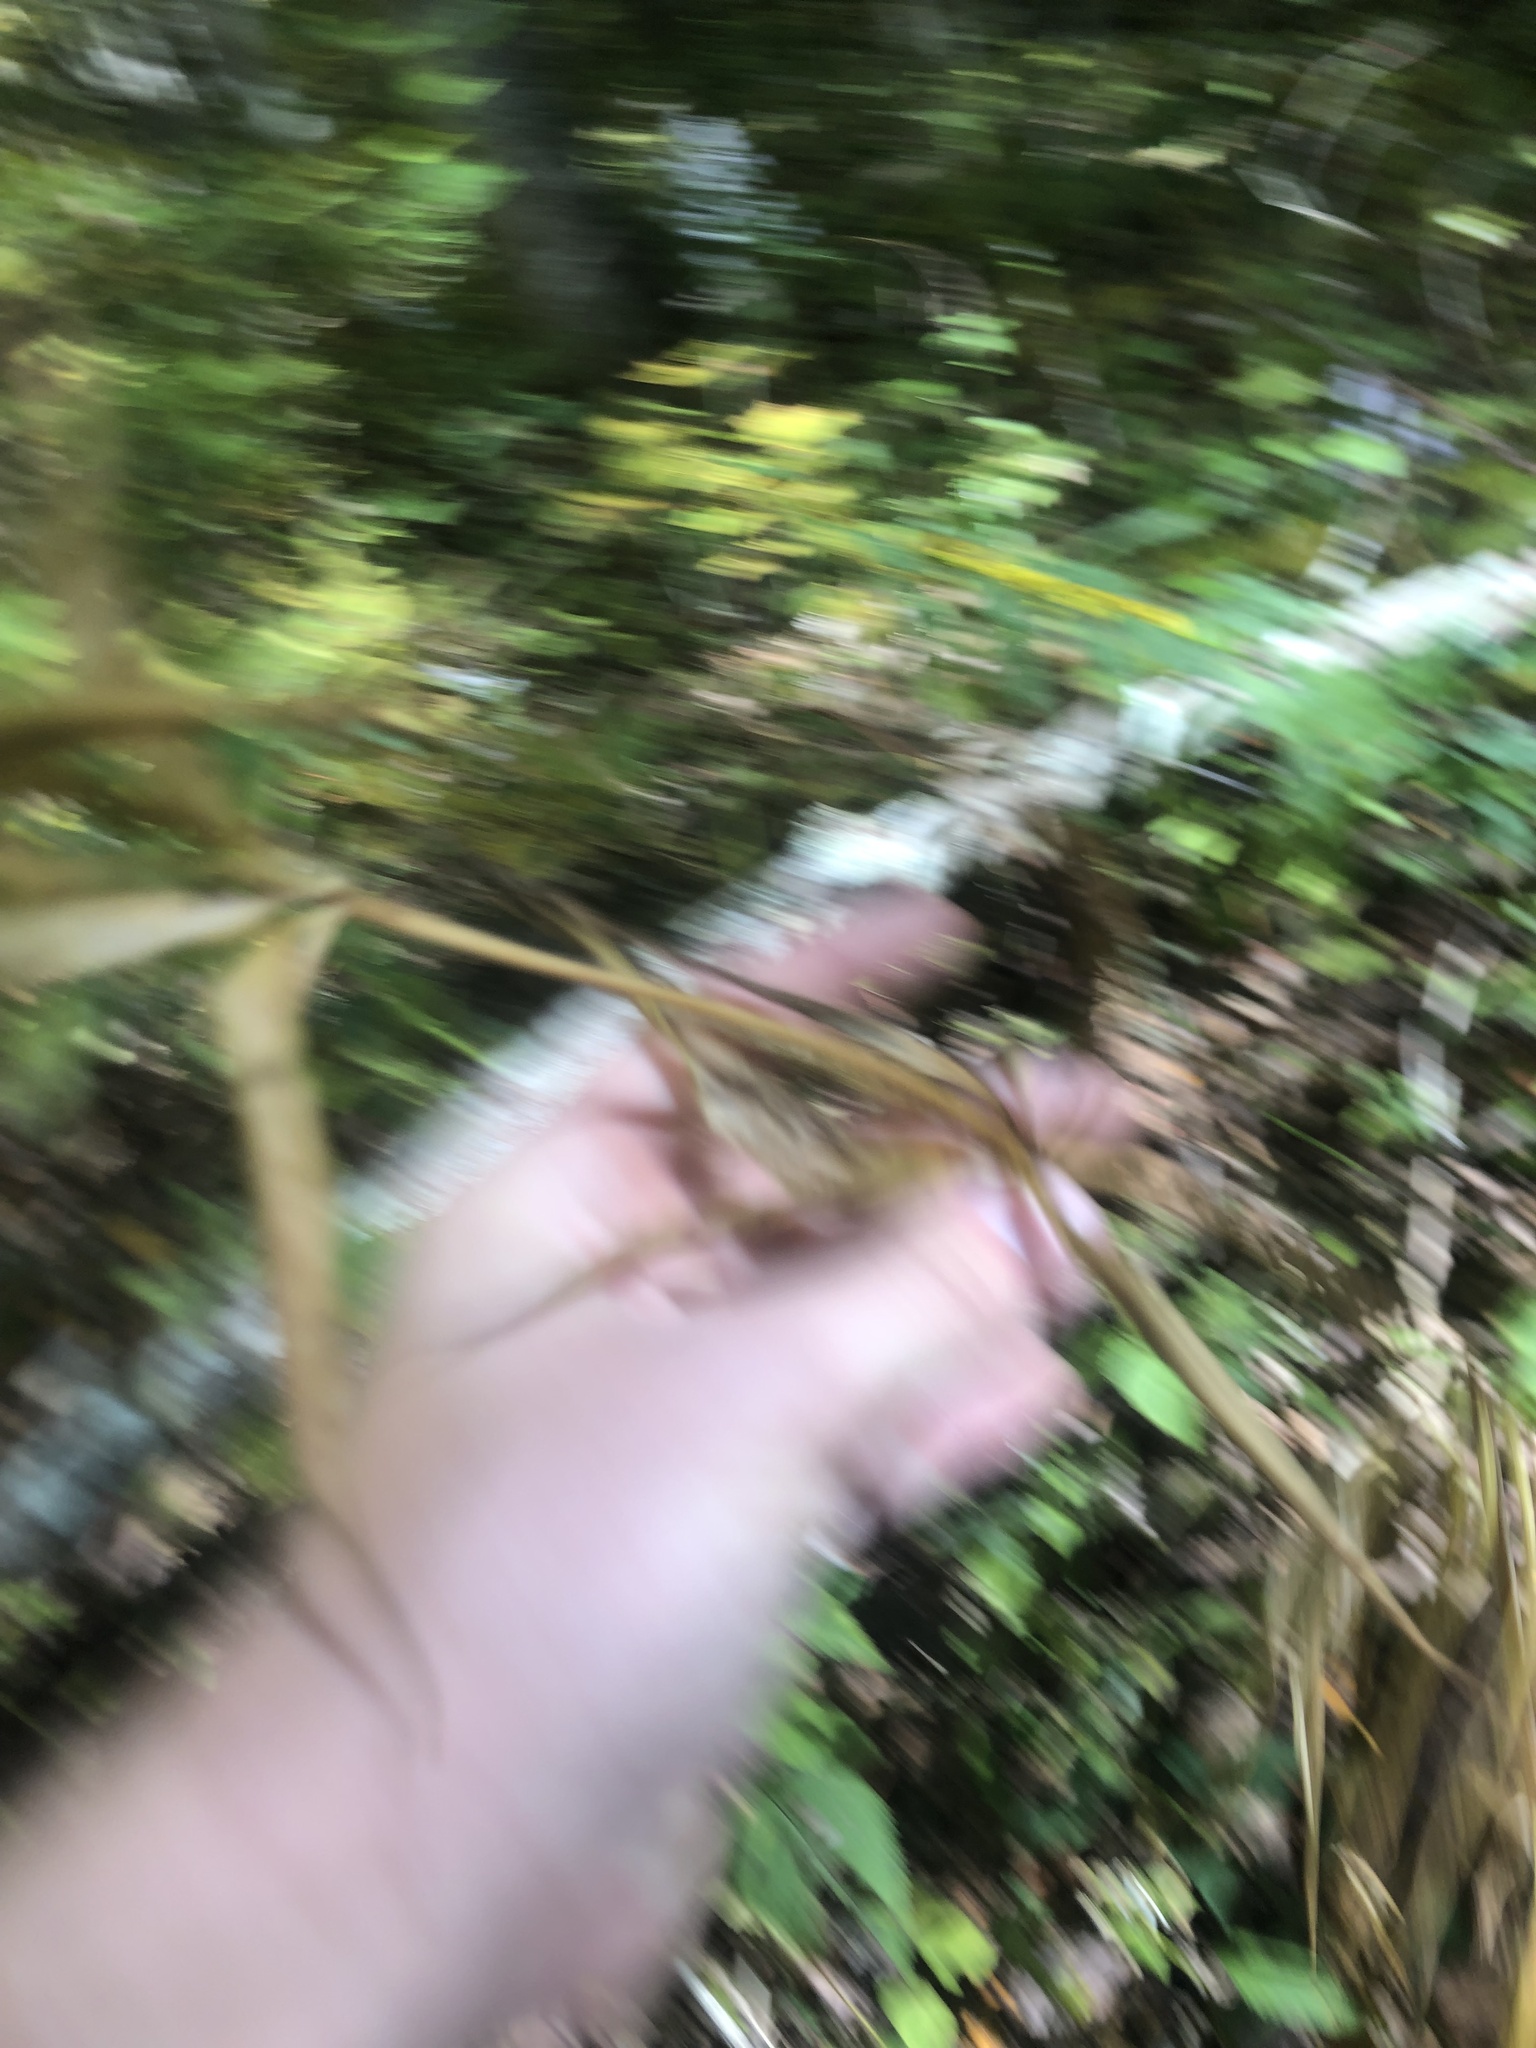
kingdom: Plantae
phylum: Tracheophyta
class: Liliopsida
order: Liliales
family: Liliaceae
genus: Lilium
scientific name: Lilium grayi
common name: Gray's lily
